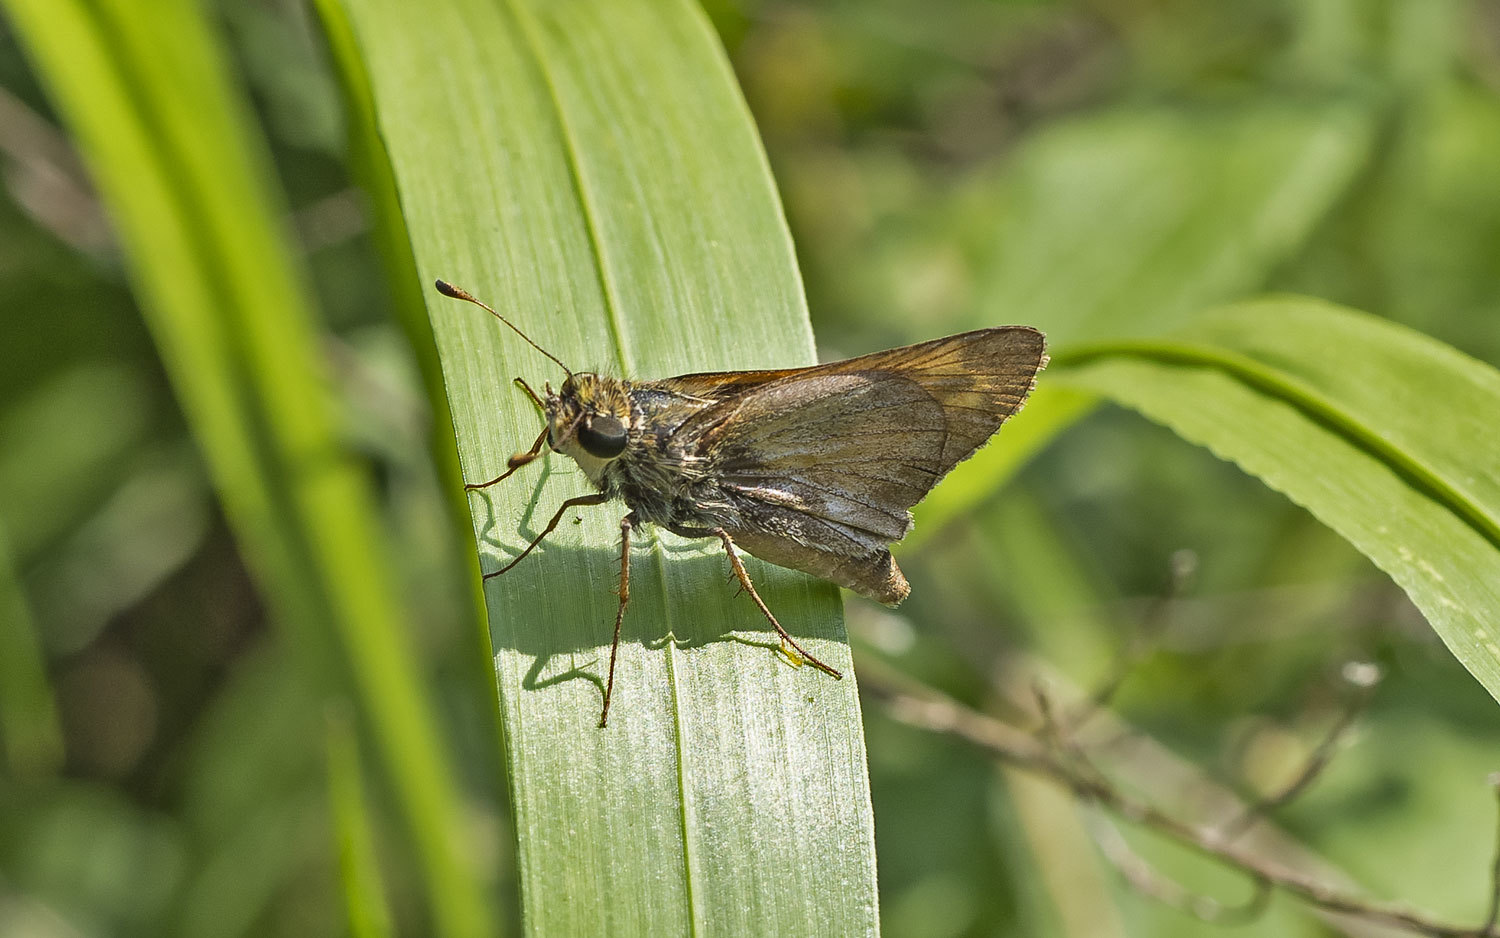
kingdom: Animalia
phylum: Arthropoda
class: Insecta
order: Lepidoptera
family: Hesperiidae
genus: Atalopedes
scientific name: Atalopedes
